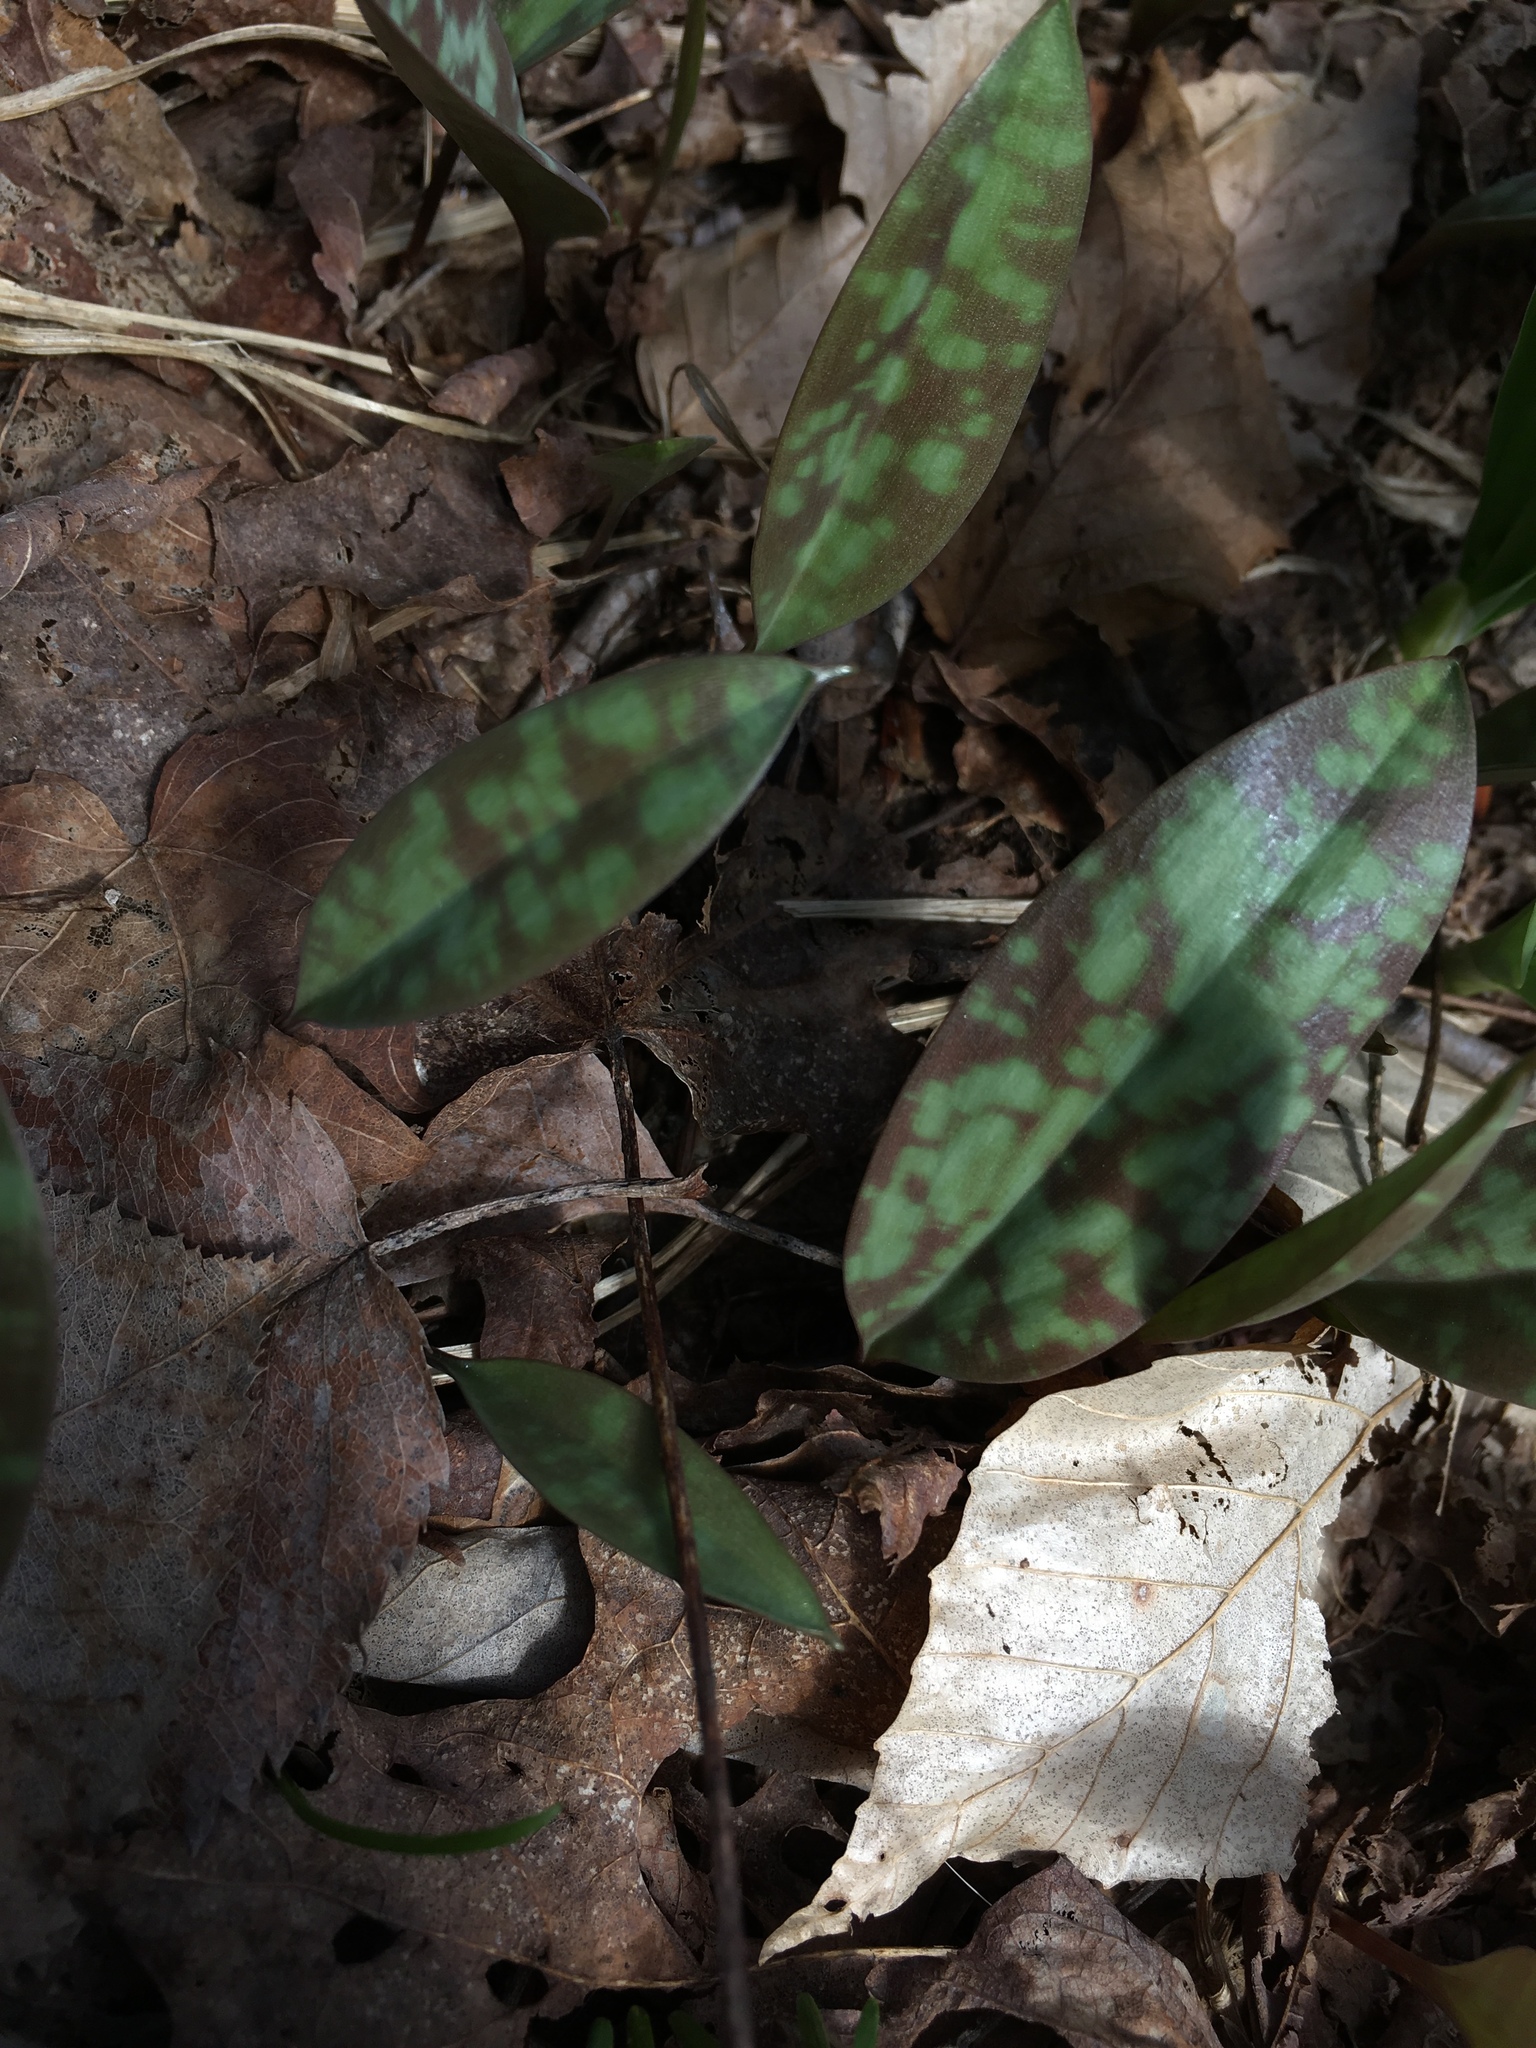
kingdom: Plantae
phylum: Tracheophyta
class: Liliopsida
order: Liliales
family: Liliaceae
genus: Erythronium
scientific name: Erythronium americanum
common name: Yellow adder's-tongue
